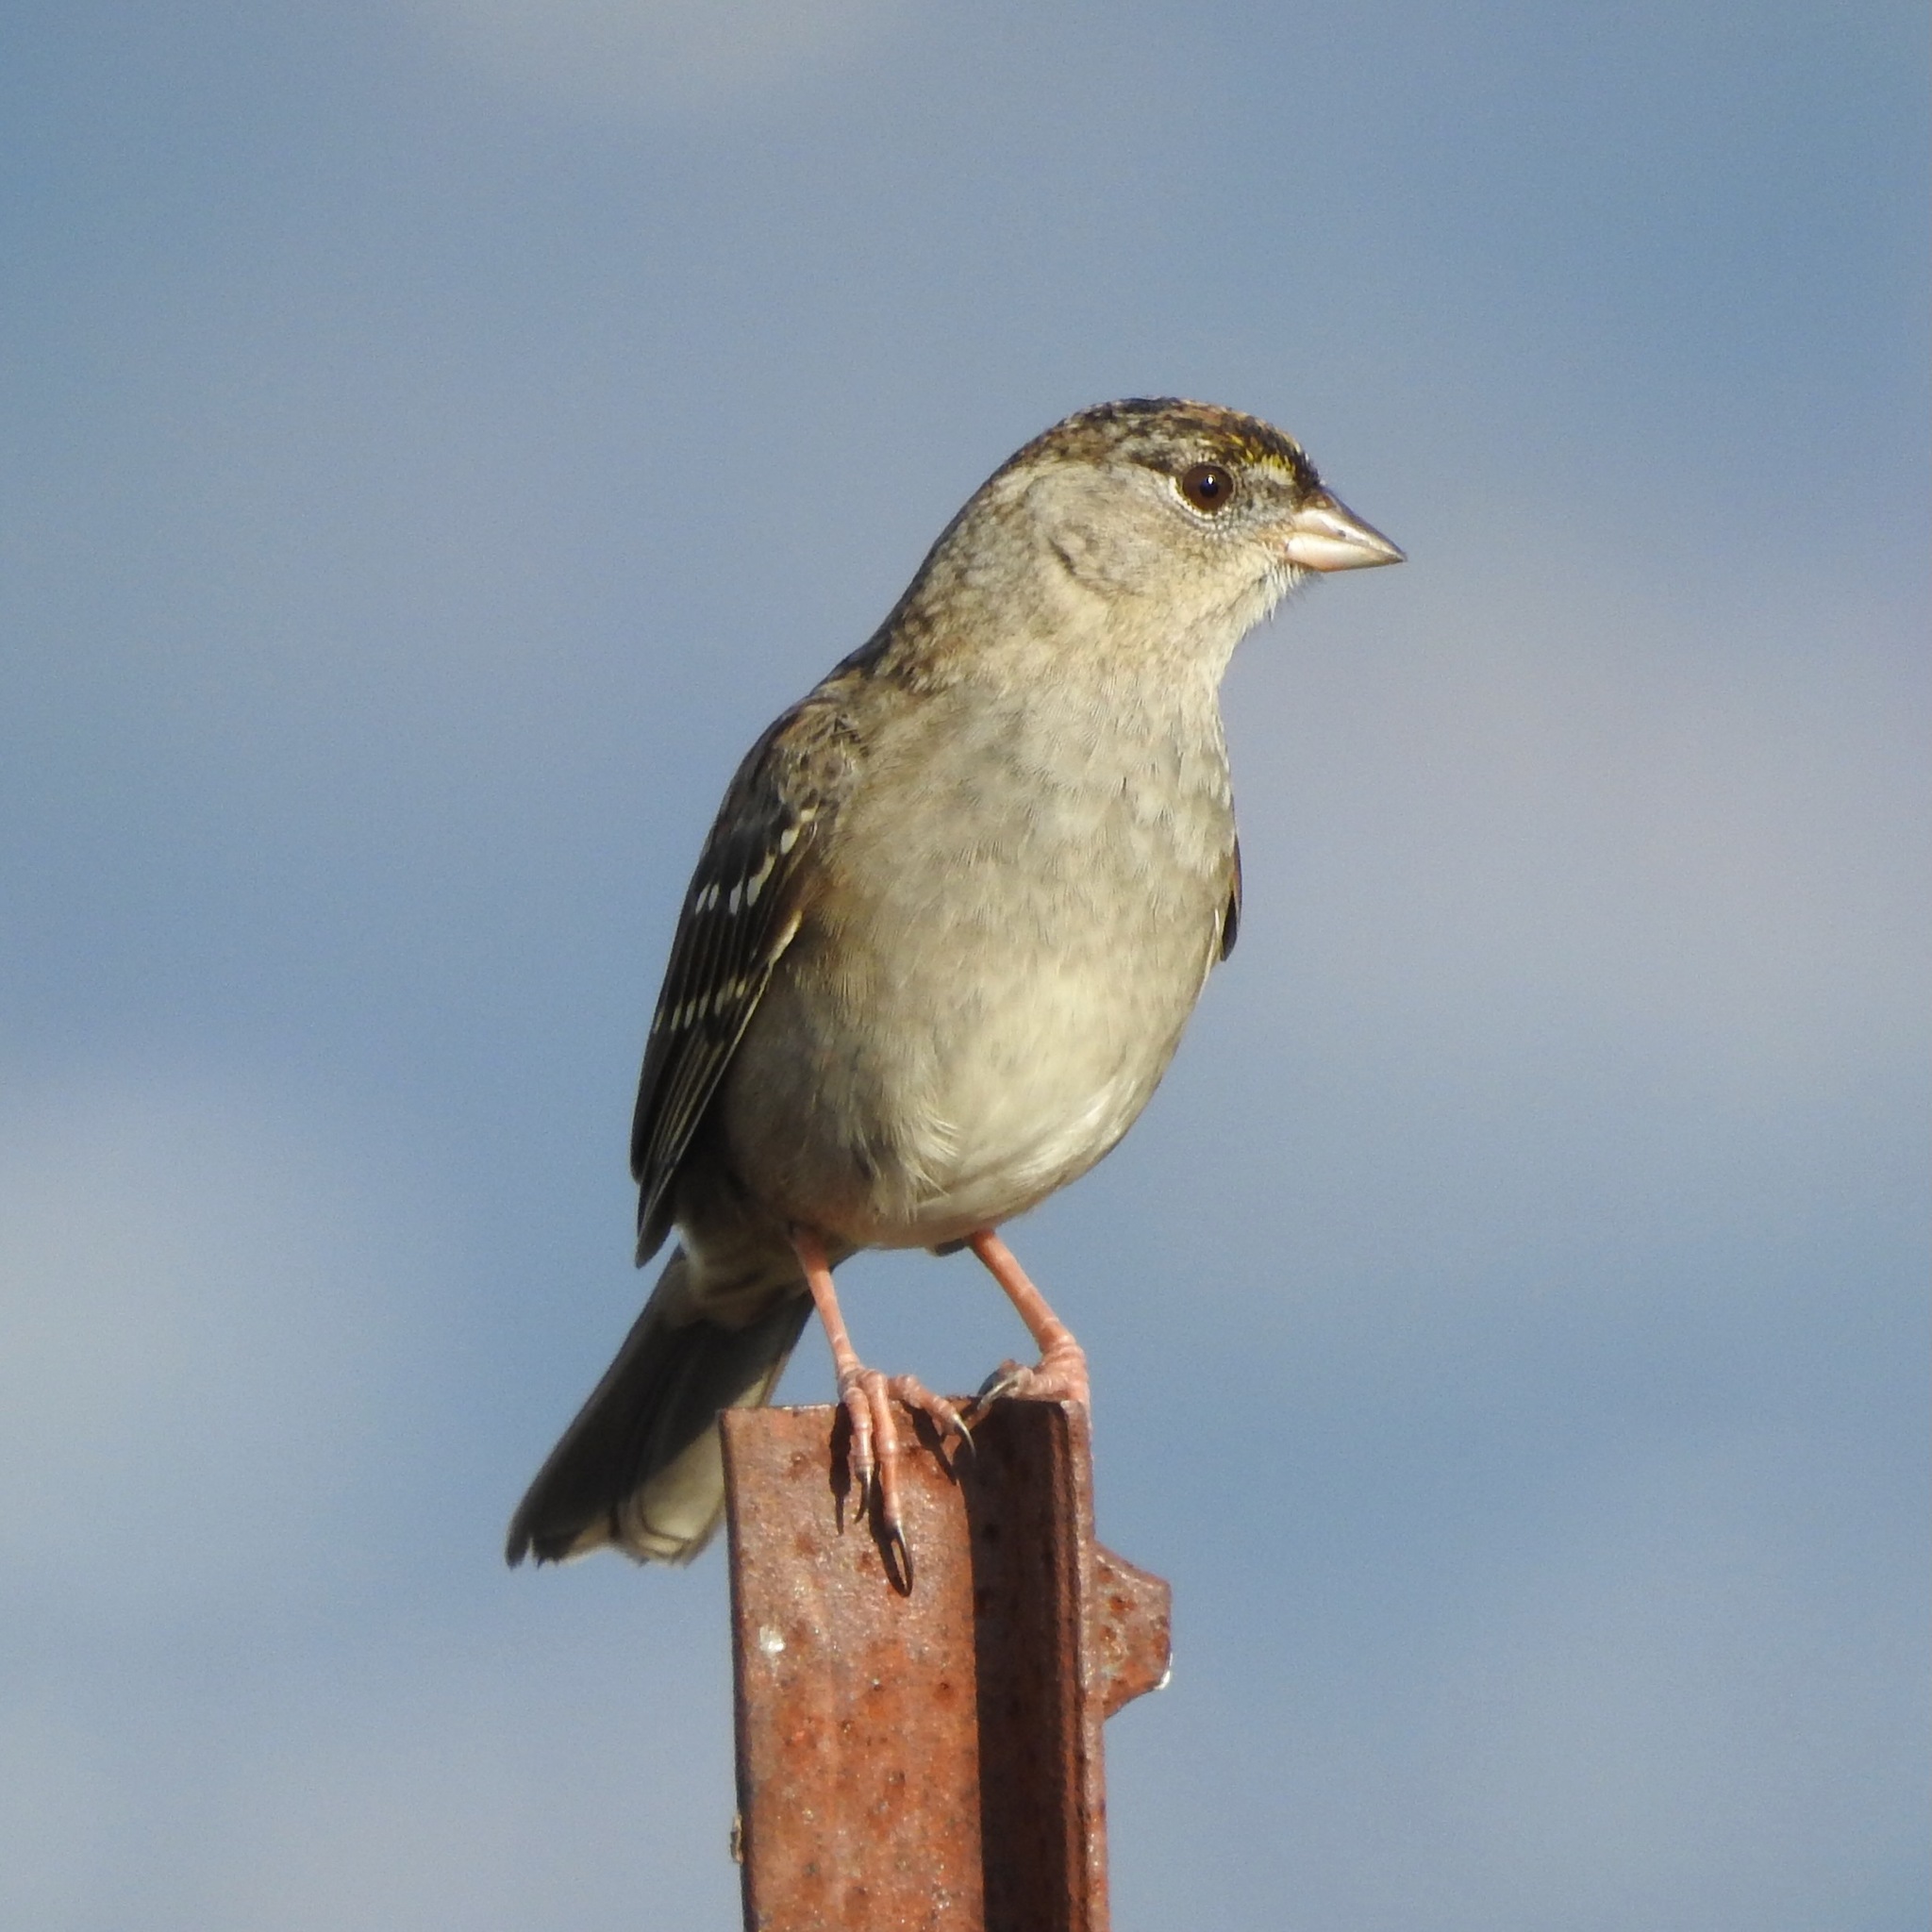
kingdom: Animalia
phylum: Chordata
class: Aves
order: Passeriformes
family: Passerellidae
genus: Zonotrichia
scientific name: Zonotrichia atricapilla
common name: Golden-crowned sparrow
